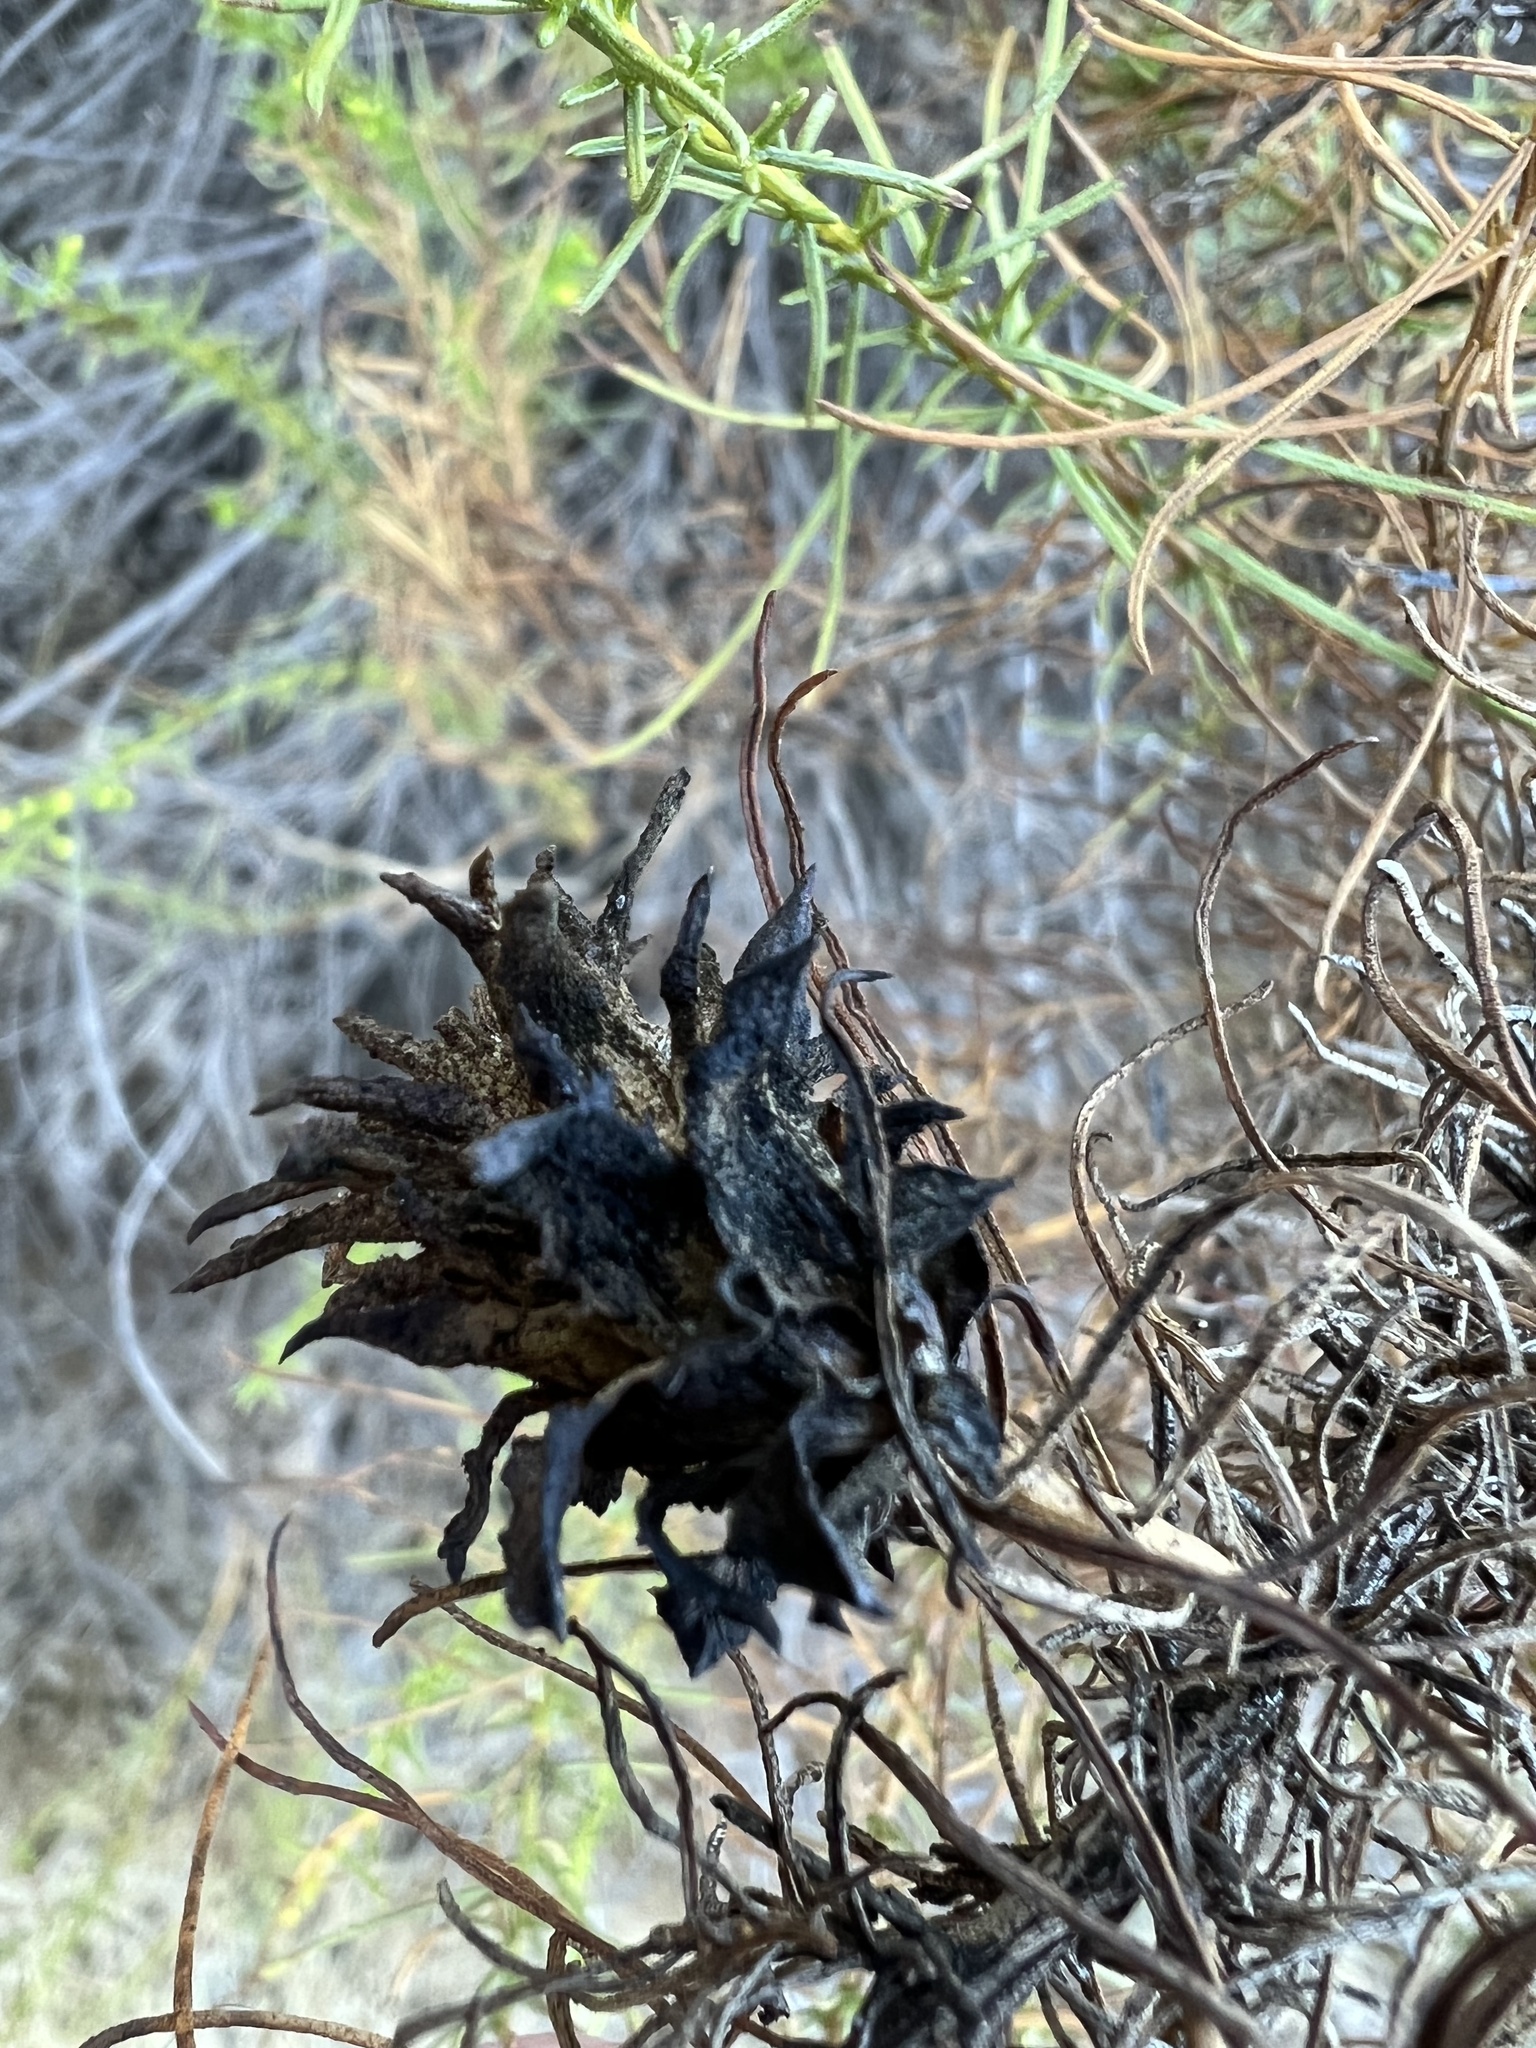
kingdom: Plantae
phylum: Tracheophyta
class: Magnoliopsida
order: Asterales
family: Asteraceae
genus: Ericameria
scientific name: Ericameria palmeri
